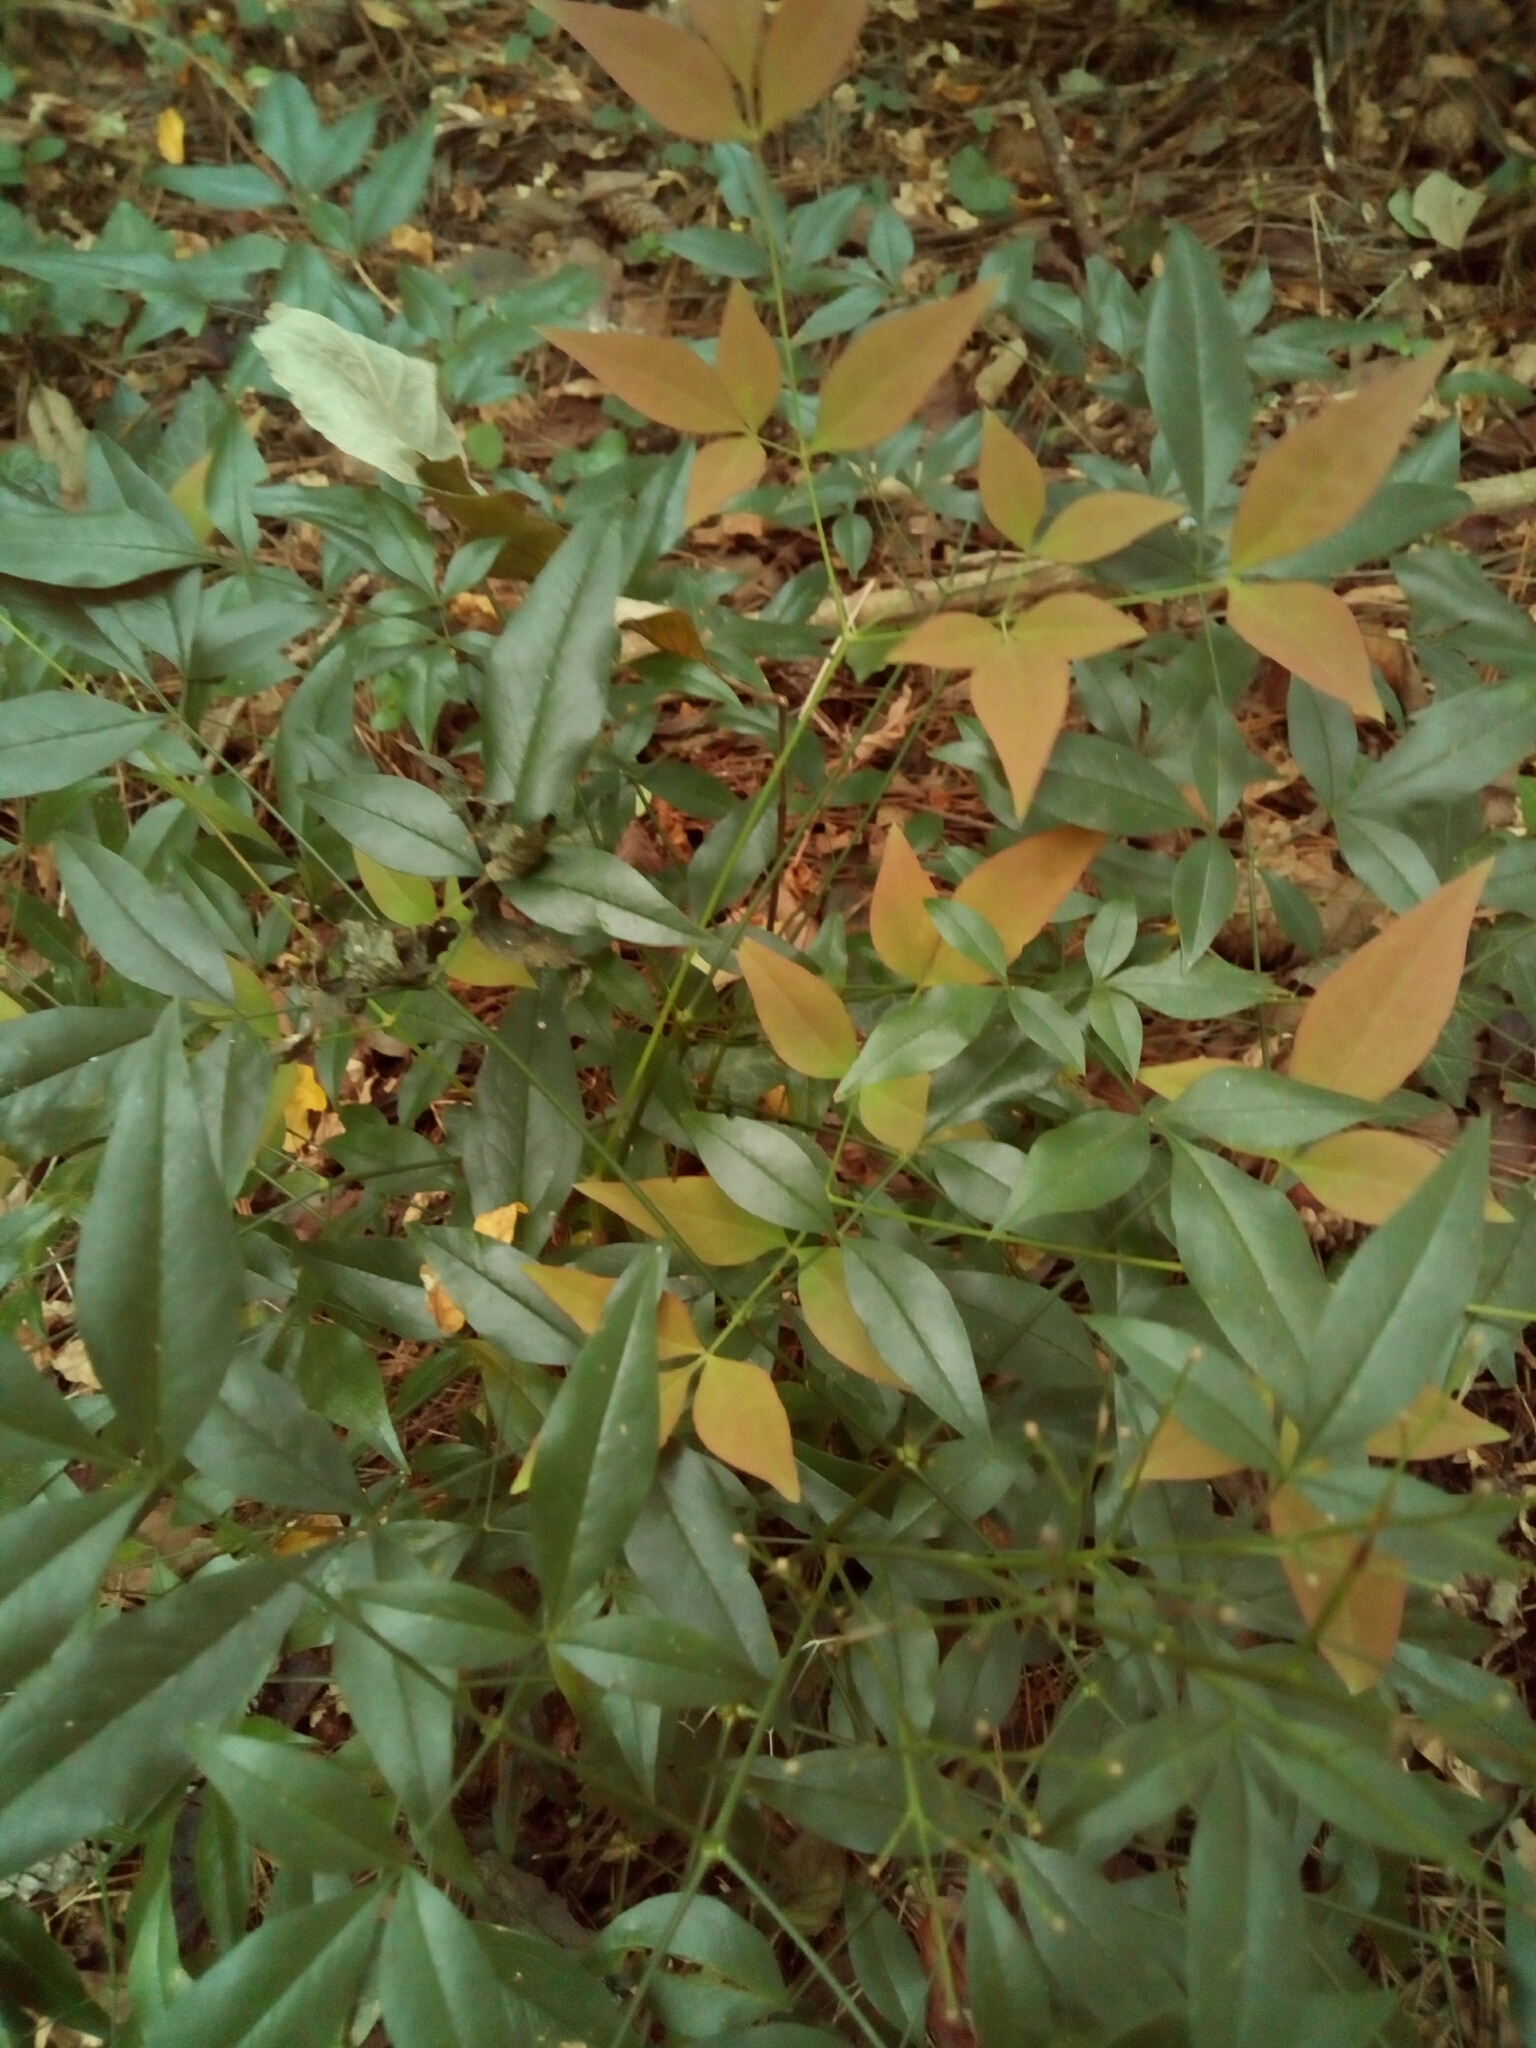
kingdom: Plantae
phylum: Tracheophyta
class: Magnoliopsida
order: Ranunculales
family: Berberidaceae
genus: Nandina
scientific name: Nandina domestica
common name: Sacred bamboo
